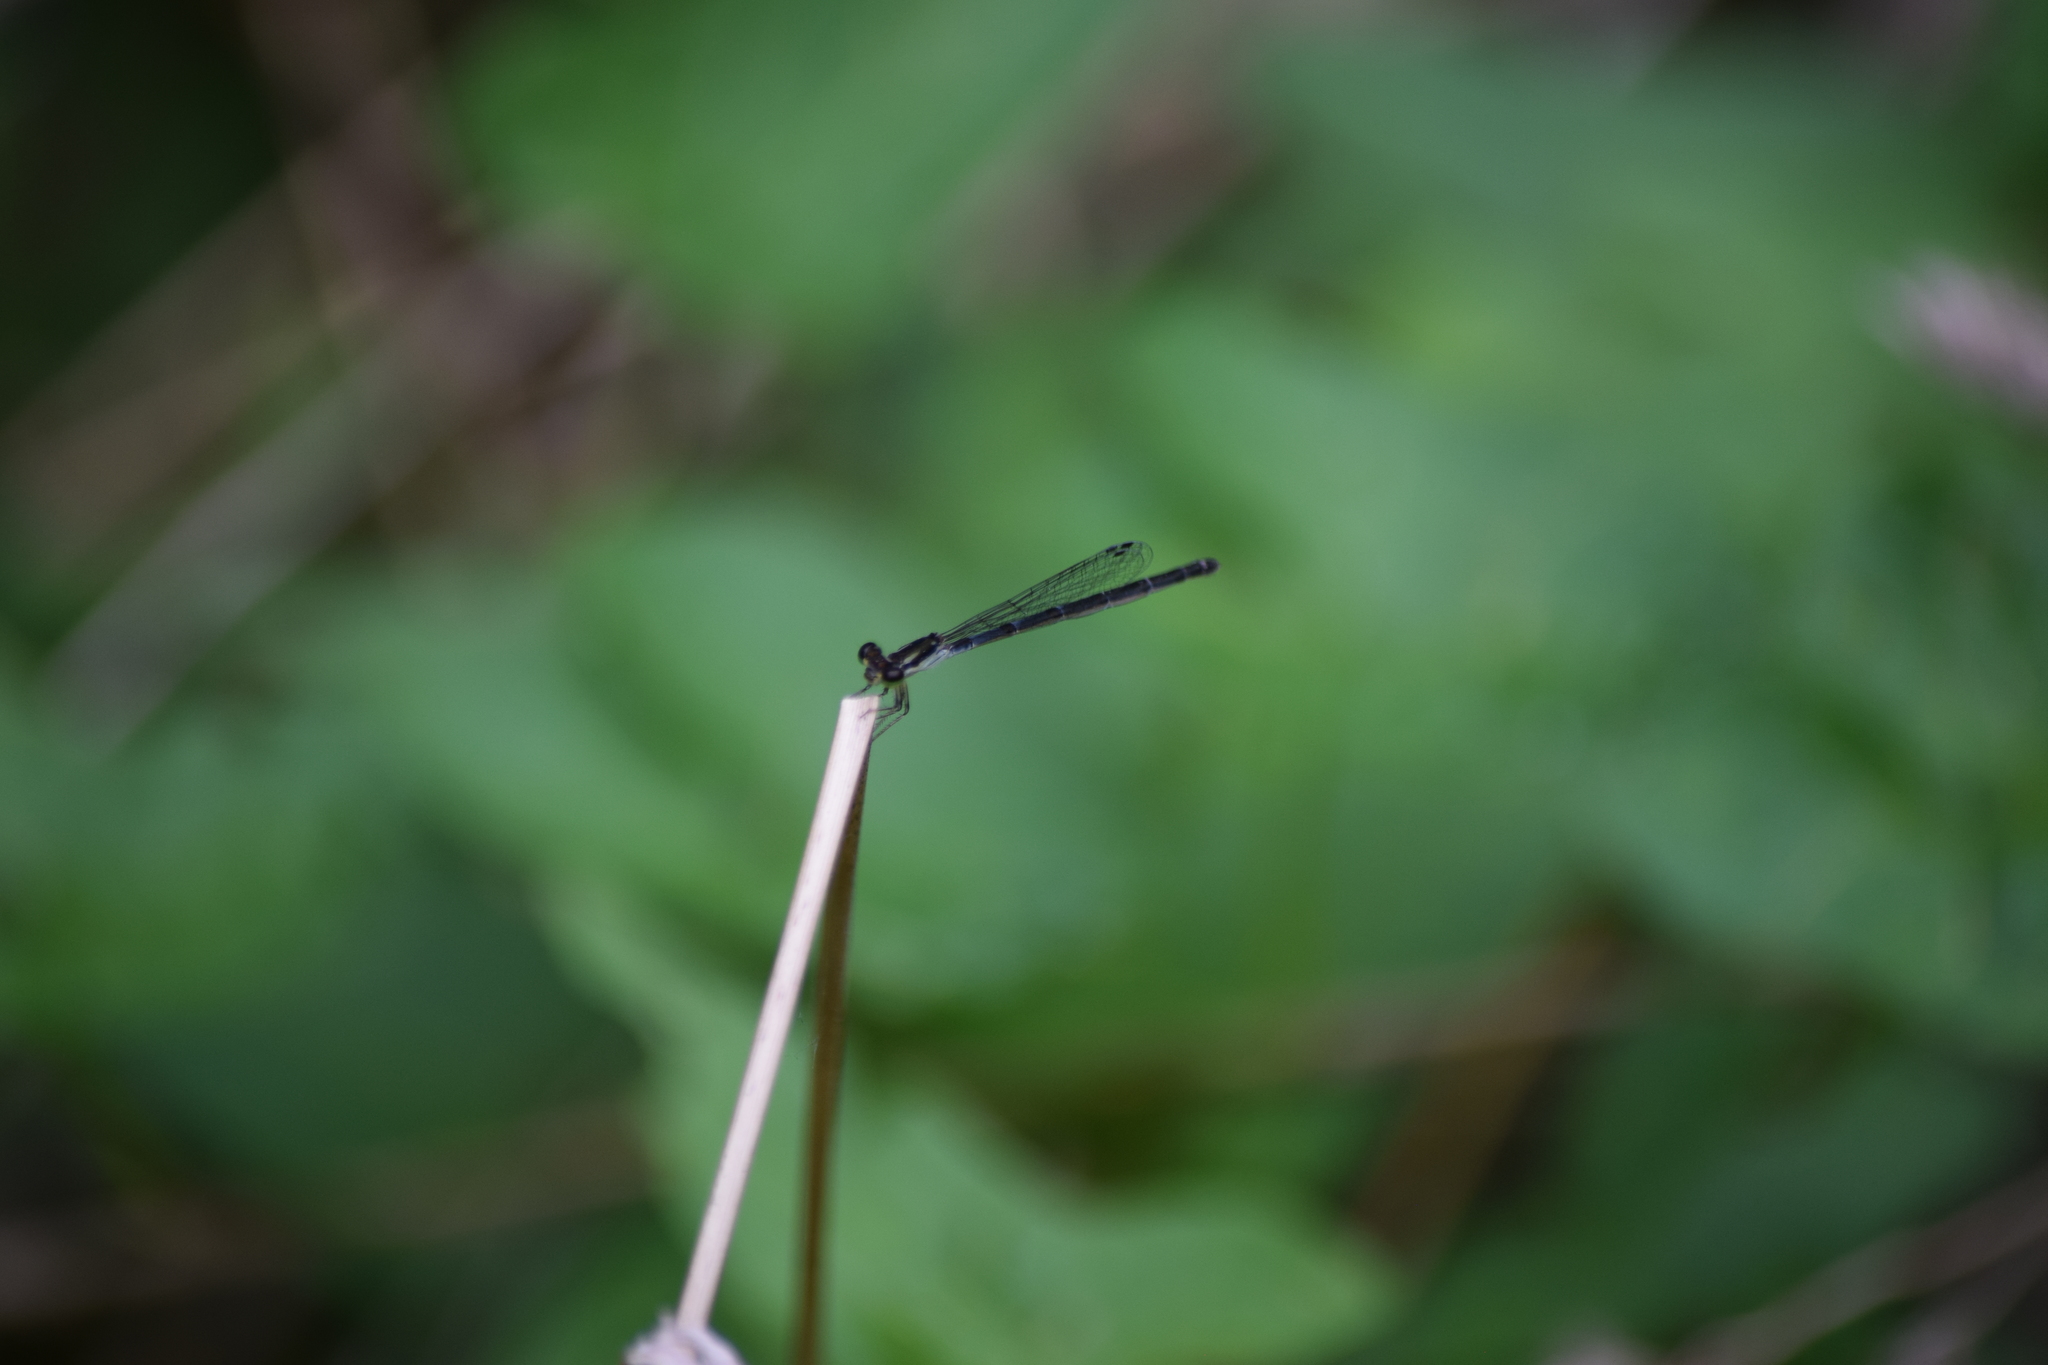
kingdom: Animalia
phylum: Arthropoda
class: Insecta
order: Odonata
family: Coenagrionidae
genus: Ischnura
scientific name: Ischnura posita
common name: Fragile forktail
